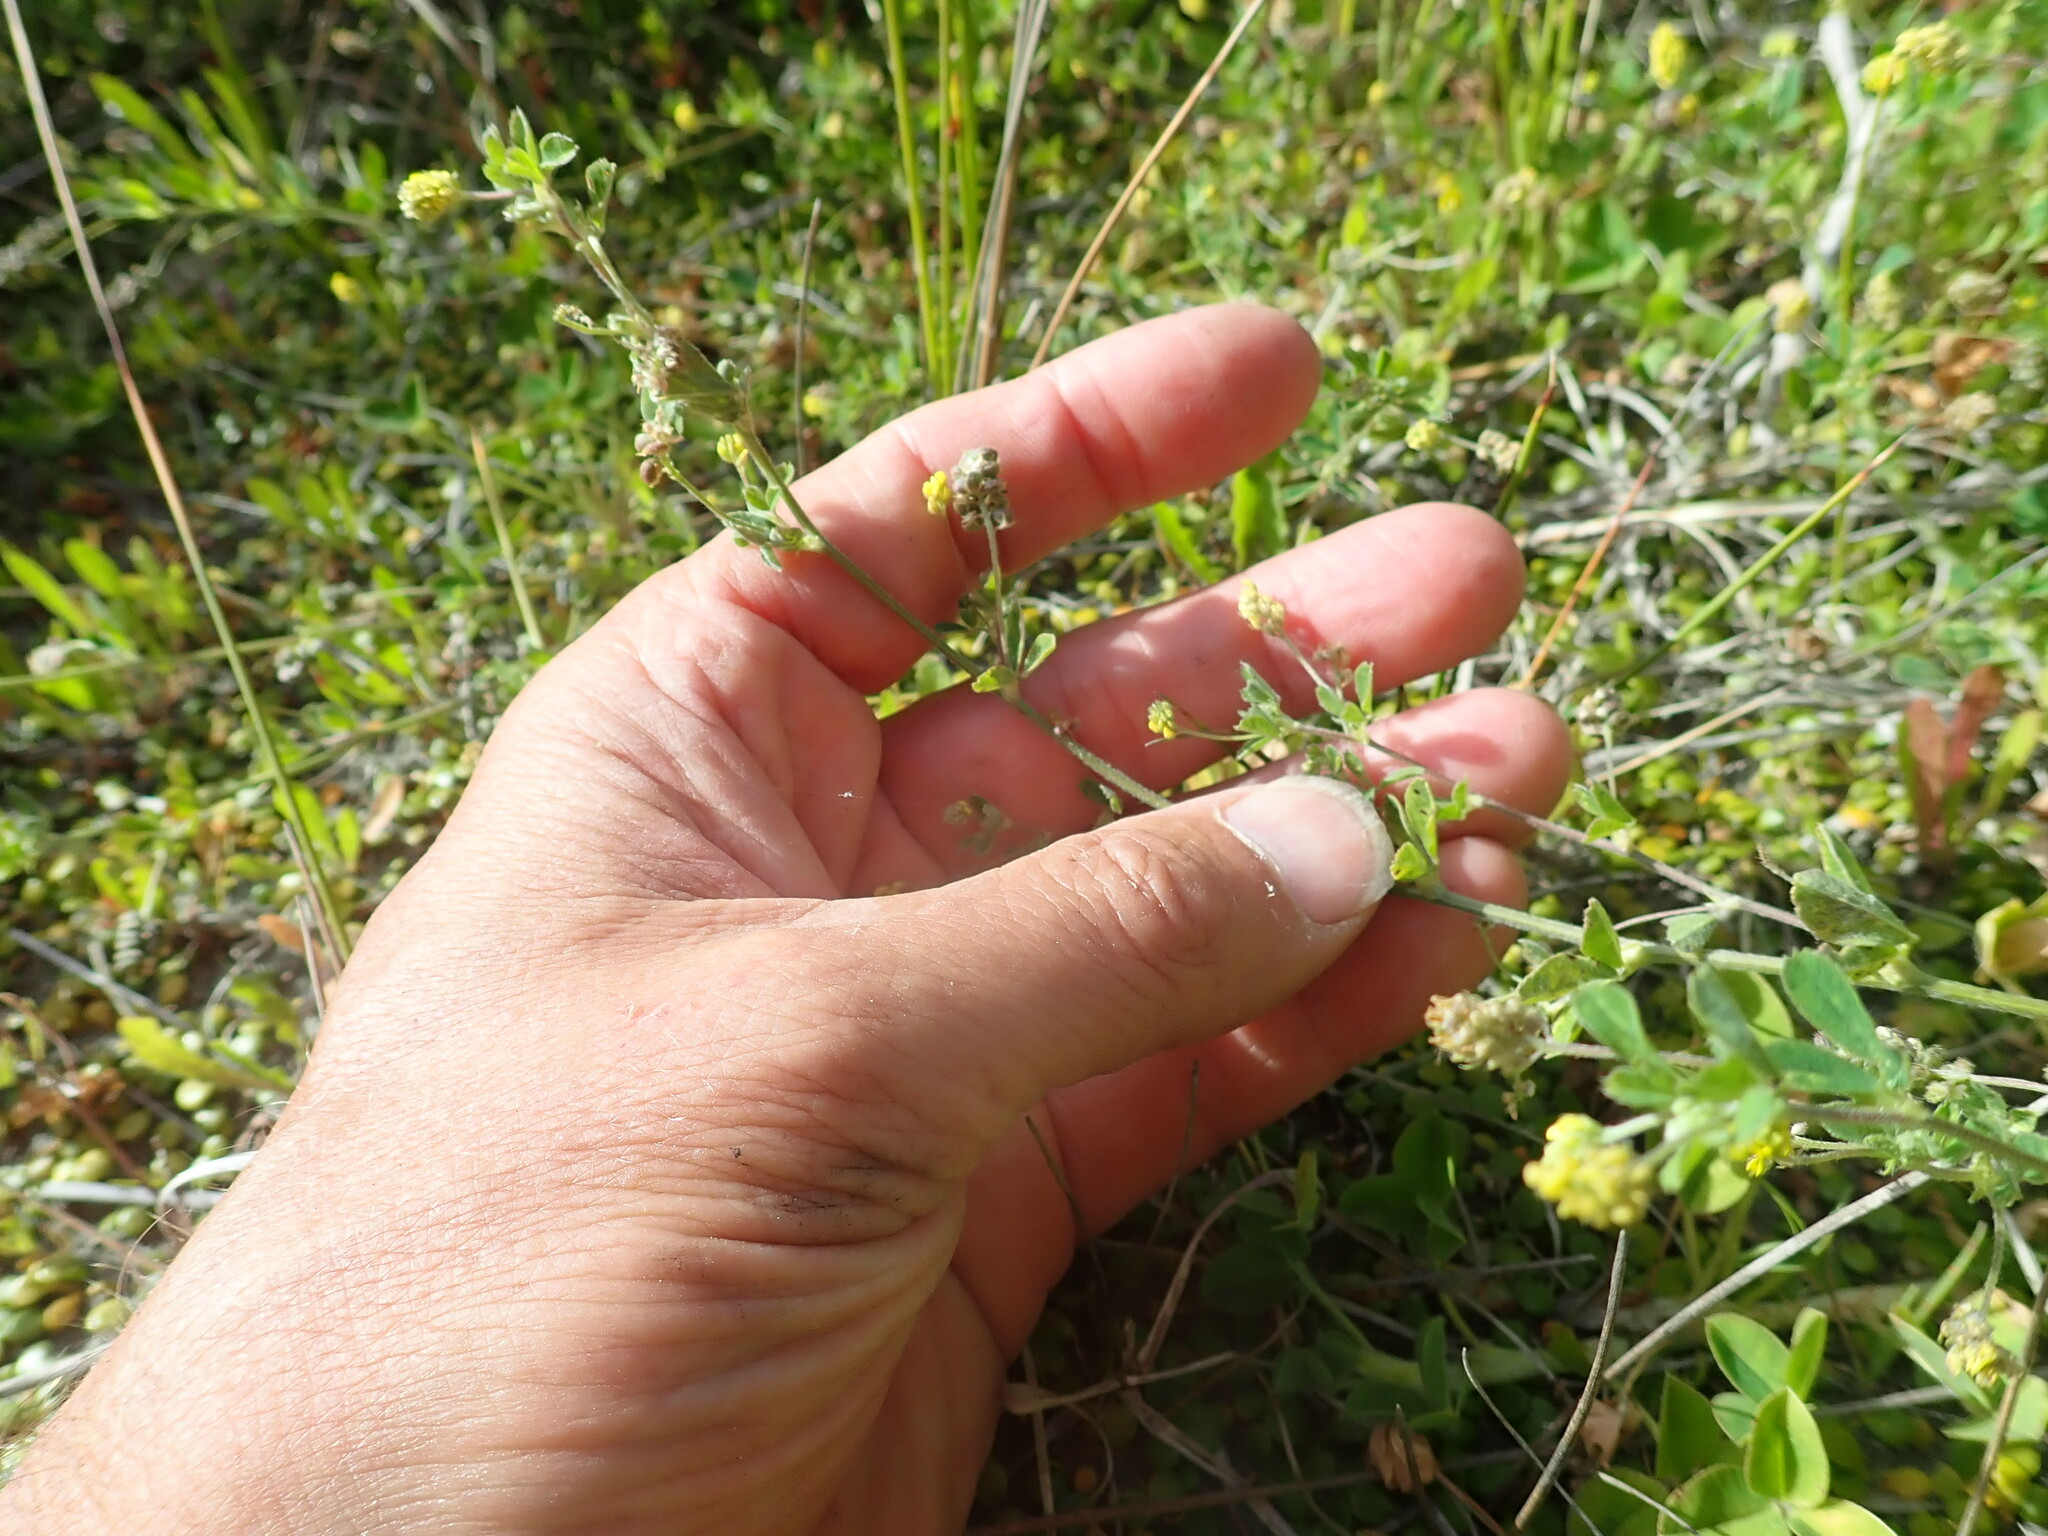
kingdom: Plantae
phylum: Tracheophyta
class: Magnoliopsida
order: Fabales
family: Fabaceae
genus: Medicago
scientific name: Medicago lupulina
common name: Black medick
